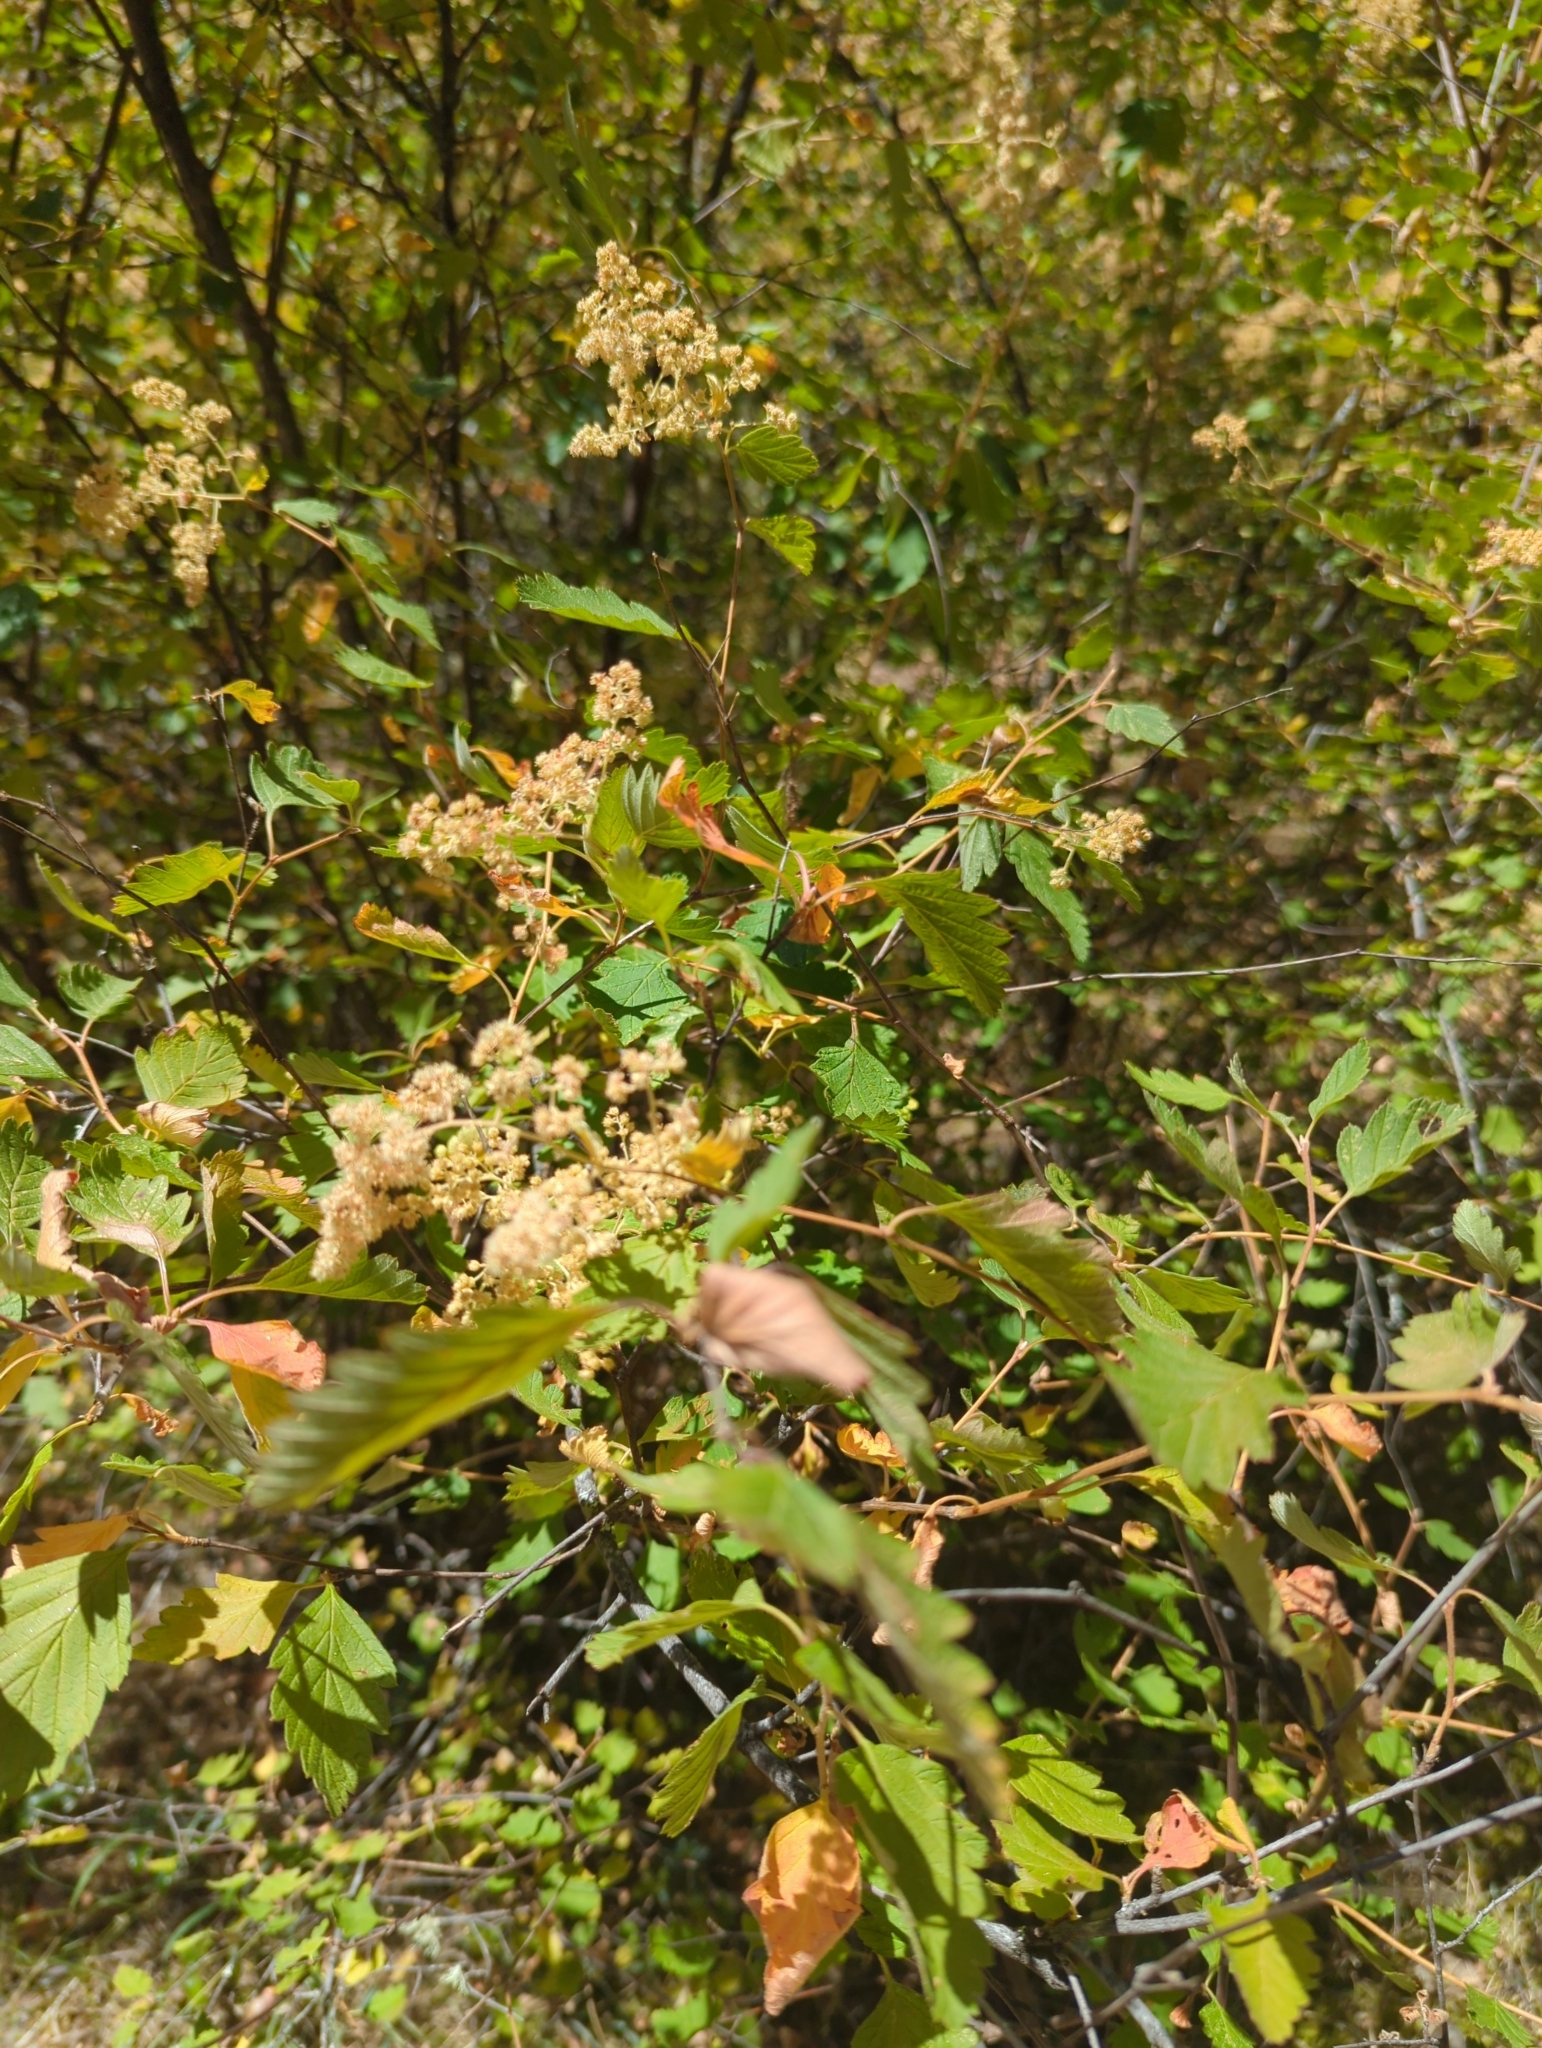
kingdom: Plantae
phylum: Tracheophyta
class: Magnoliopsida
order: Rosales
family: Rosaceae
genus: Holodiscus
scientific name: Holodiscus discolor
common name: Oceanspray
